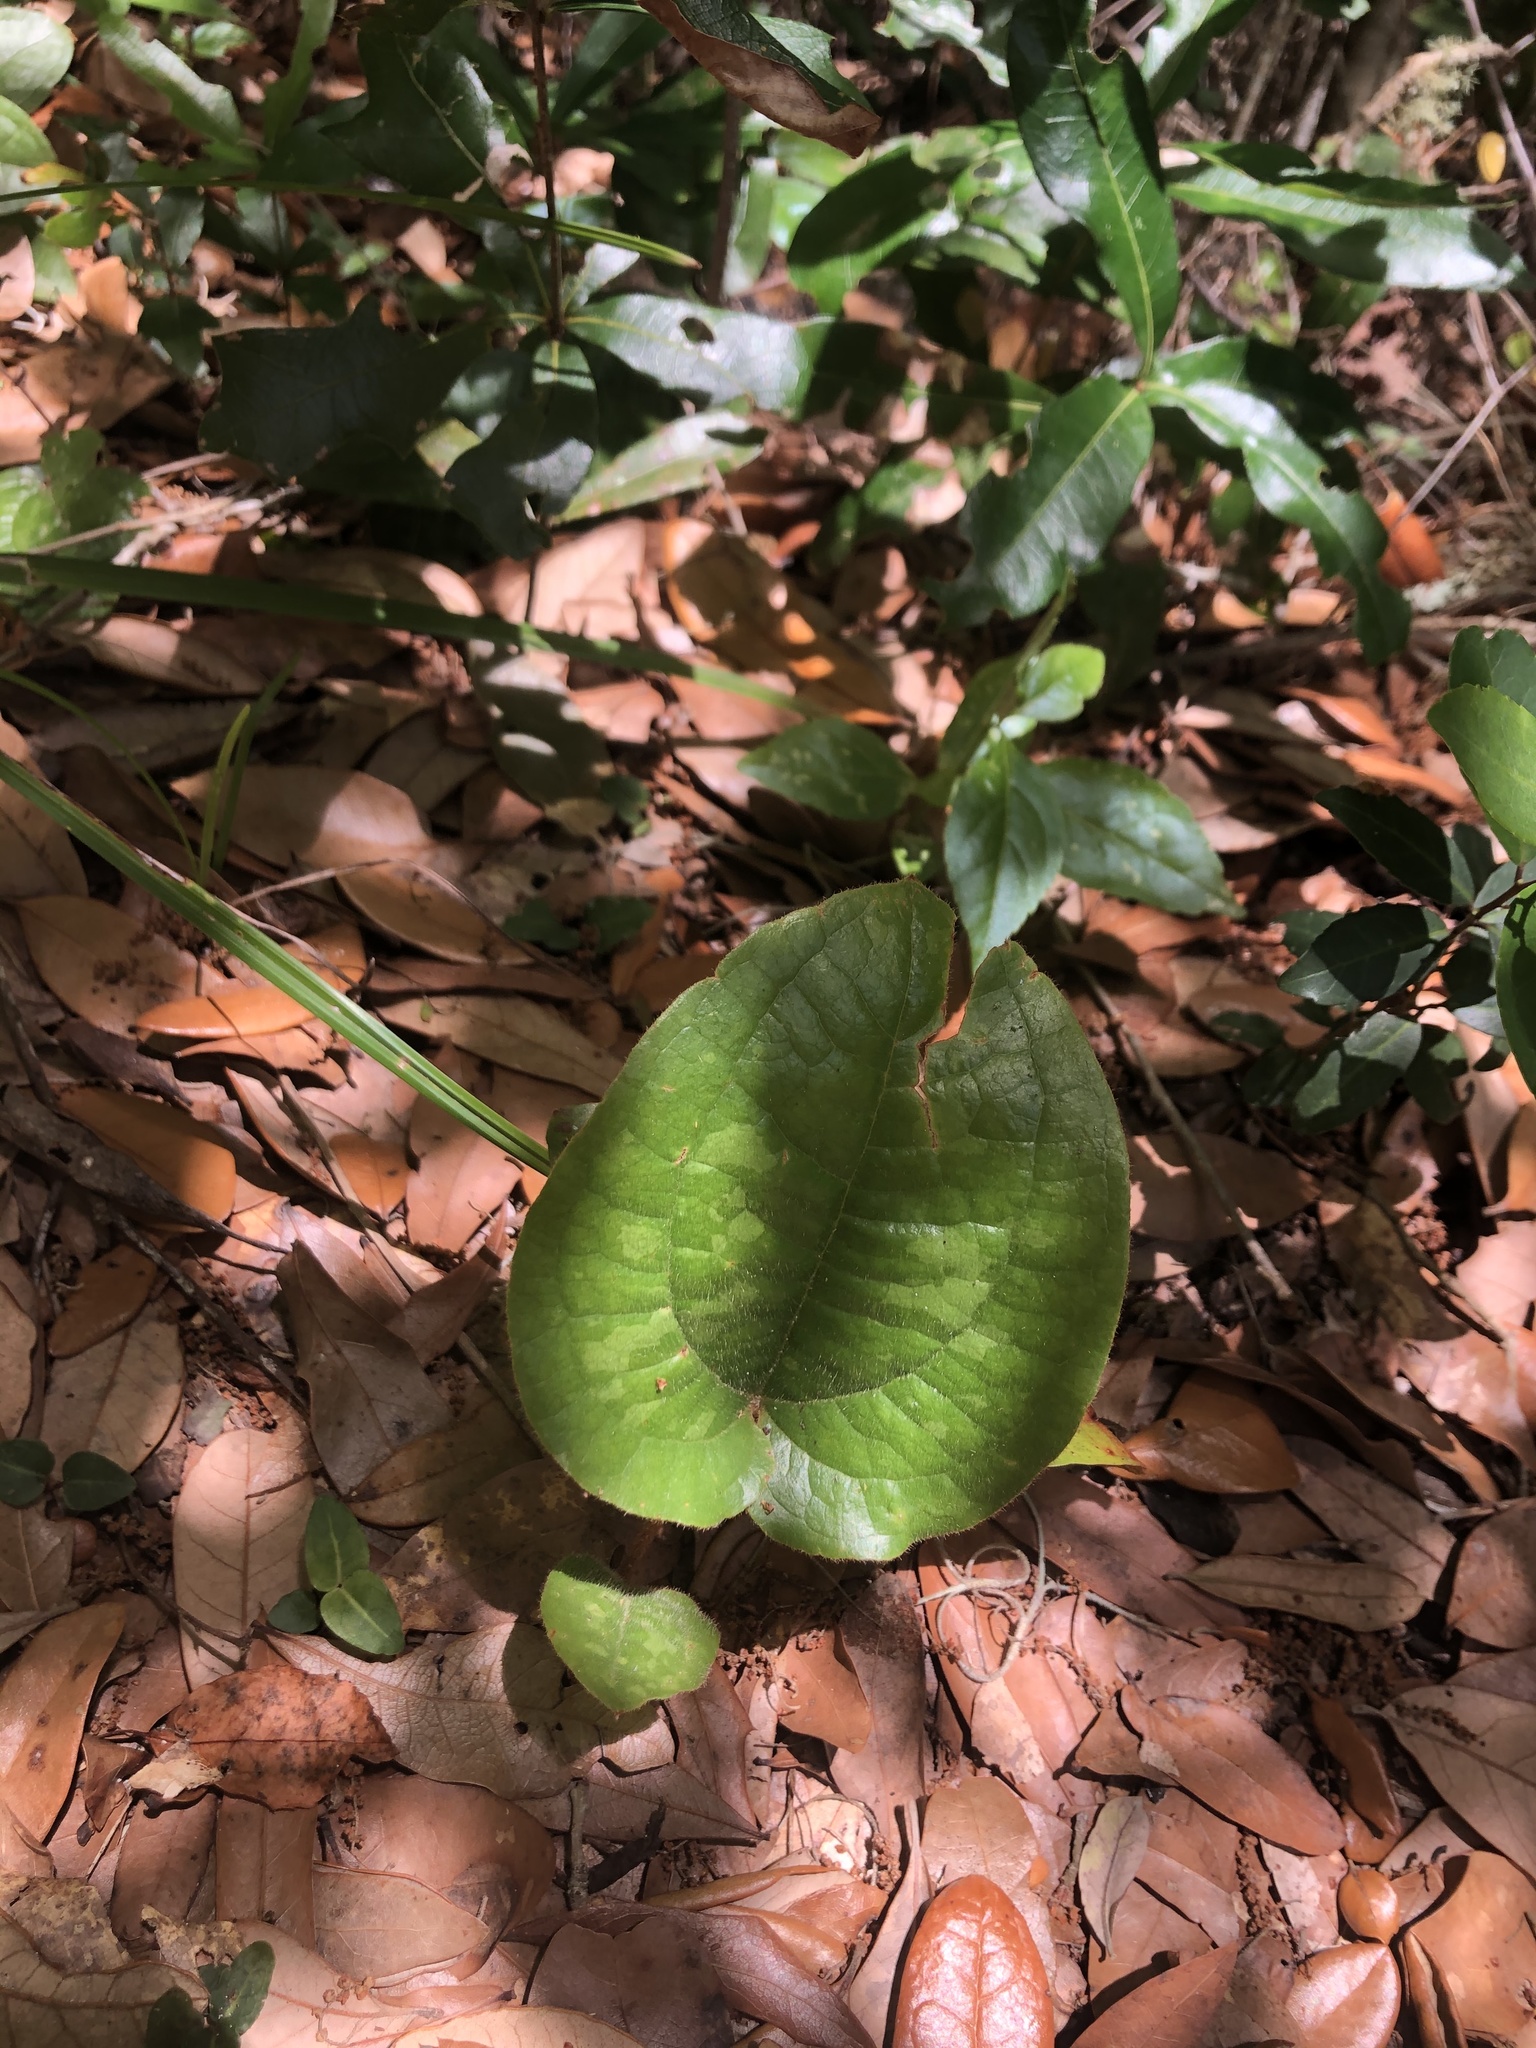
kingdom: Plantae
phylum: Tracheophyta
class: Liliopsida
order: Liliales
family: Smilacaceae
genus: Smilax
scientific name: Smilax pumila
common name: Sarsaparilla-vine
